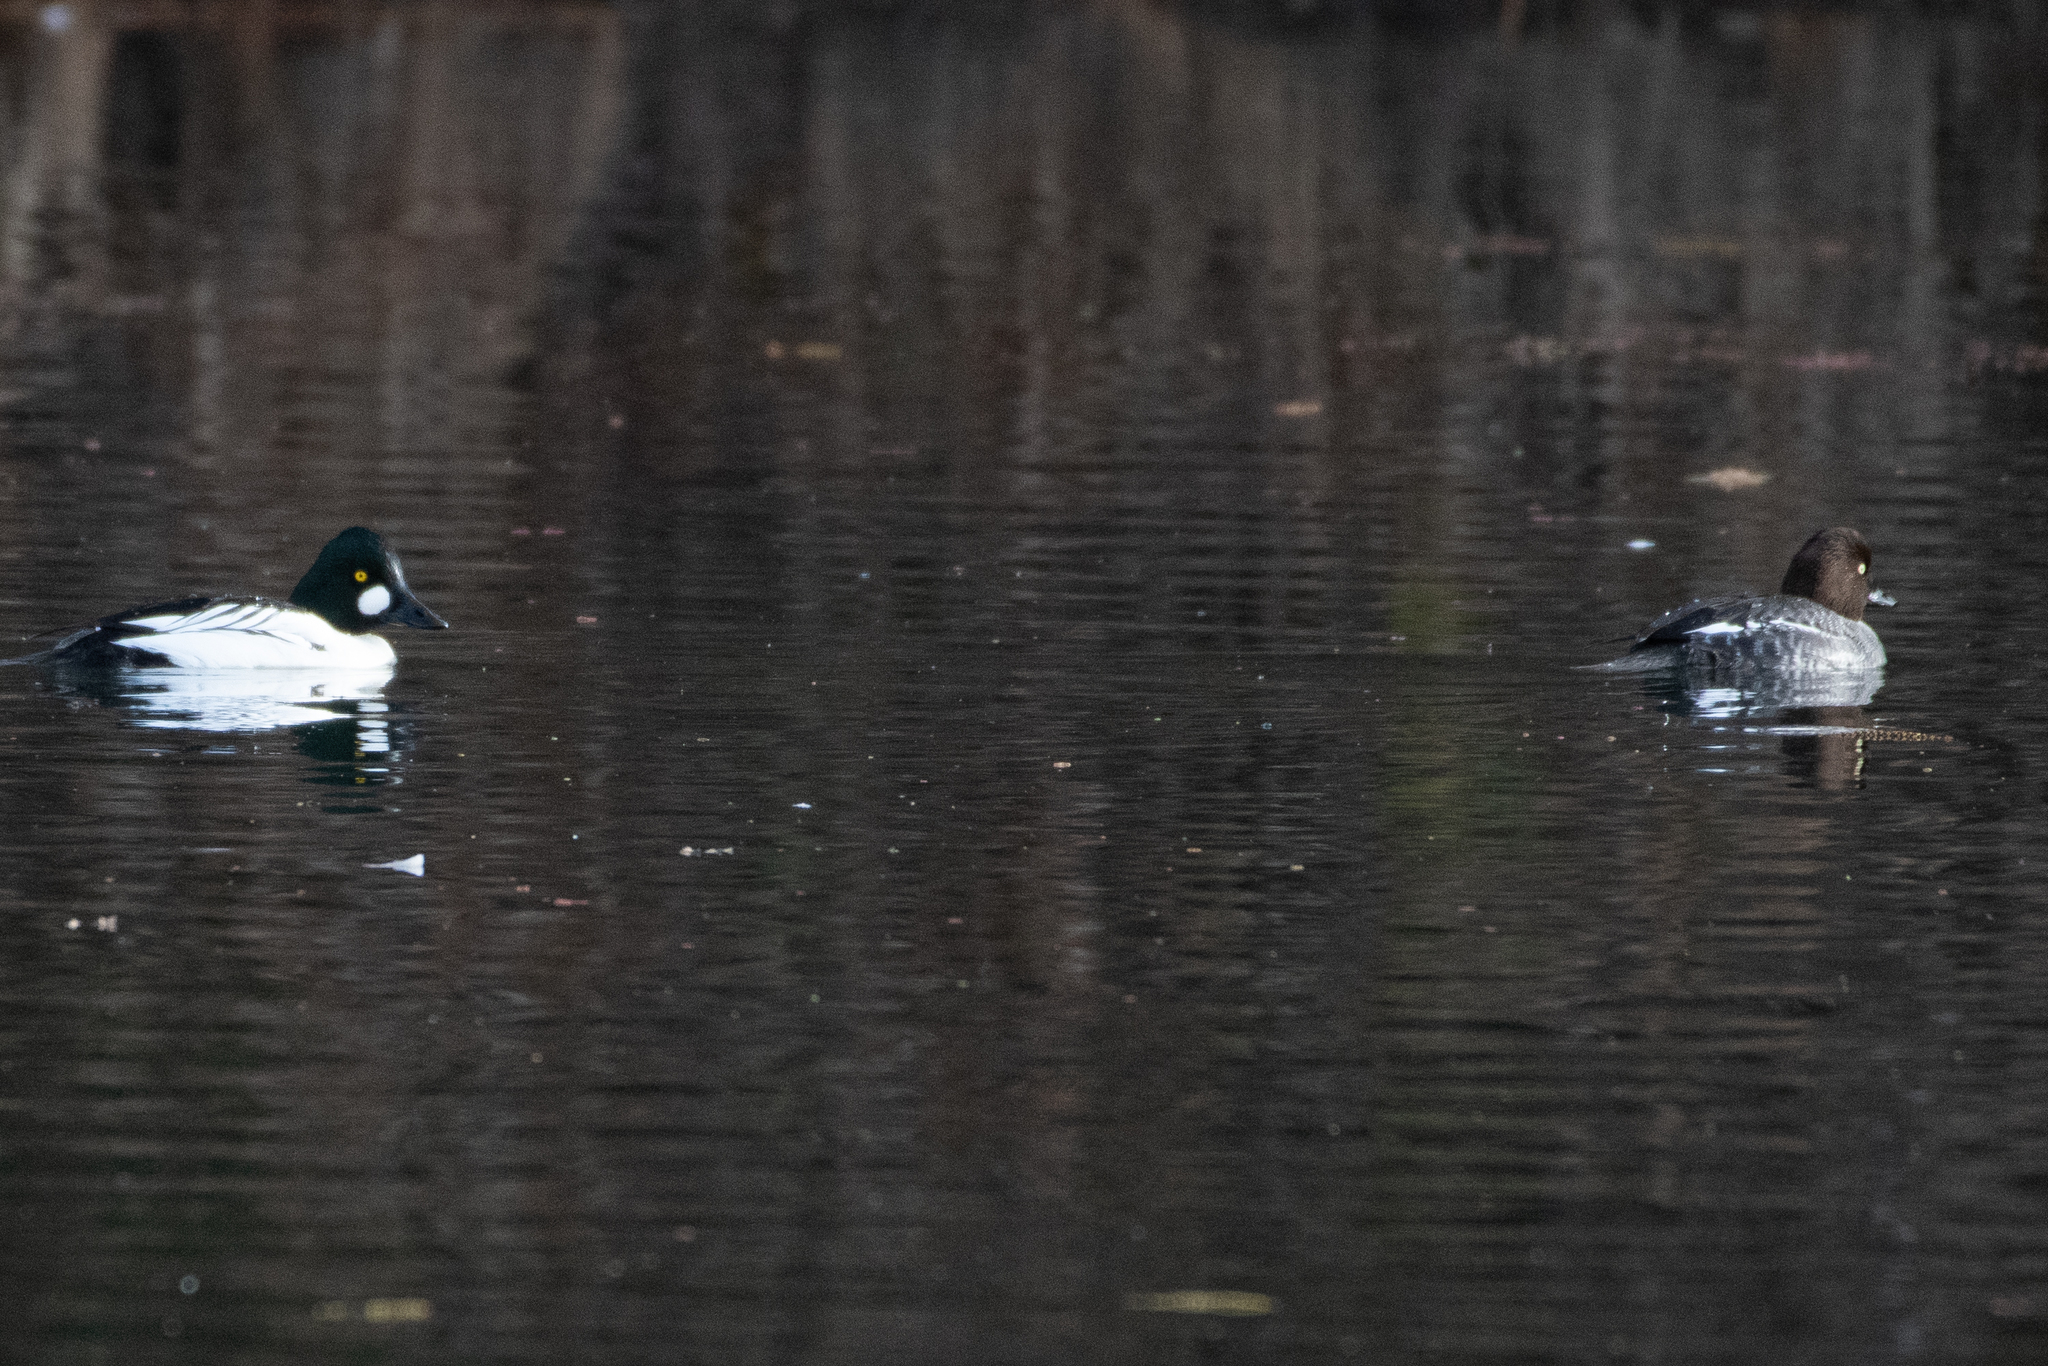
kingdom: Animalia
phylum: Chordata
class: Aves
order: Anseriformes
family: Anatidae
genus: Bucephala
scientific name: Bucephala clangula
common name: Common goldeneye
